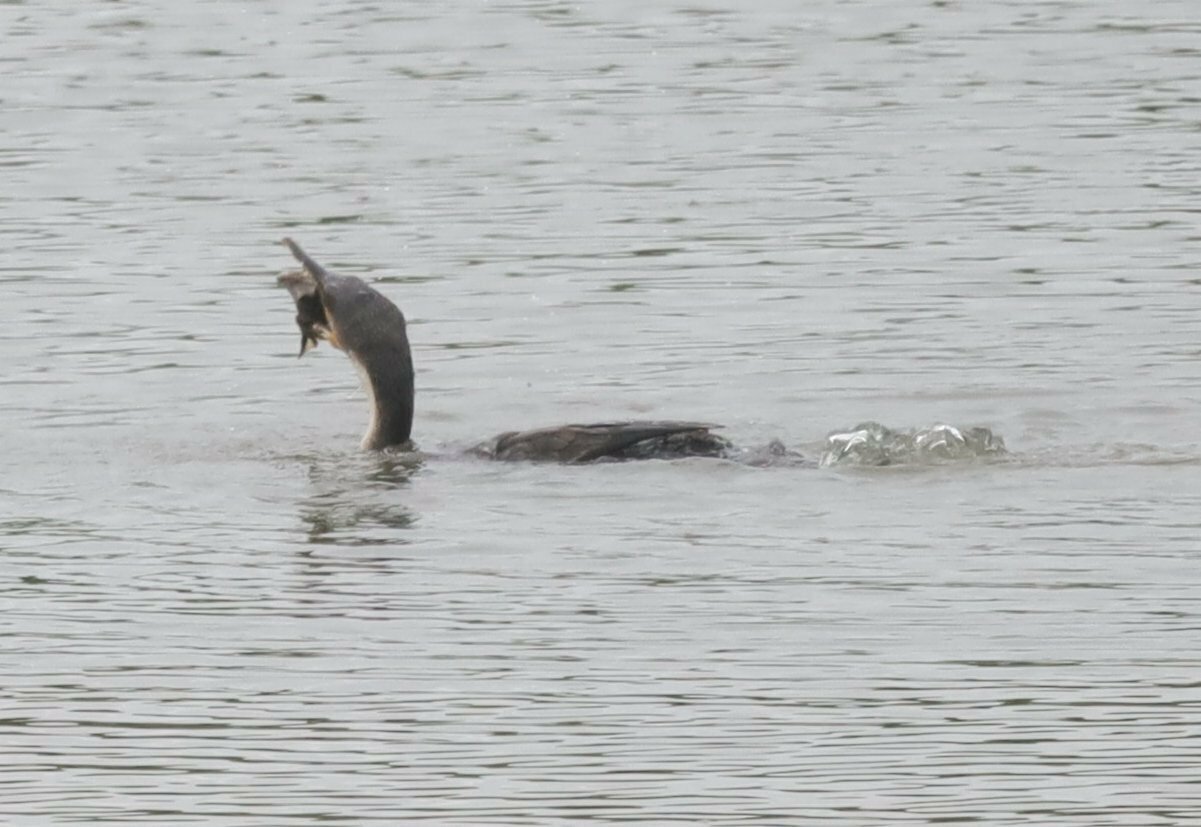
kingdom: Animalia
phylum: Chordata
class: Amphibia
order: Anura
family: Pipidae
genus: Xenopus
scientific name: Xenopus laevis
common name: African clawed frog
